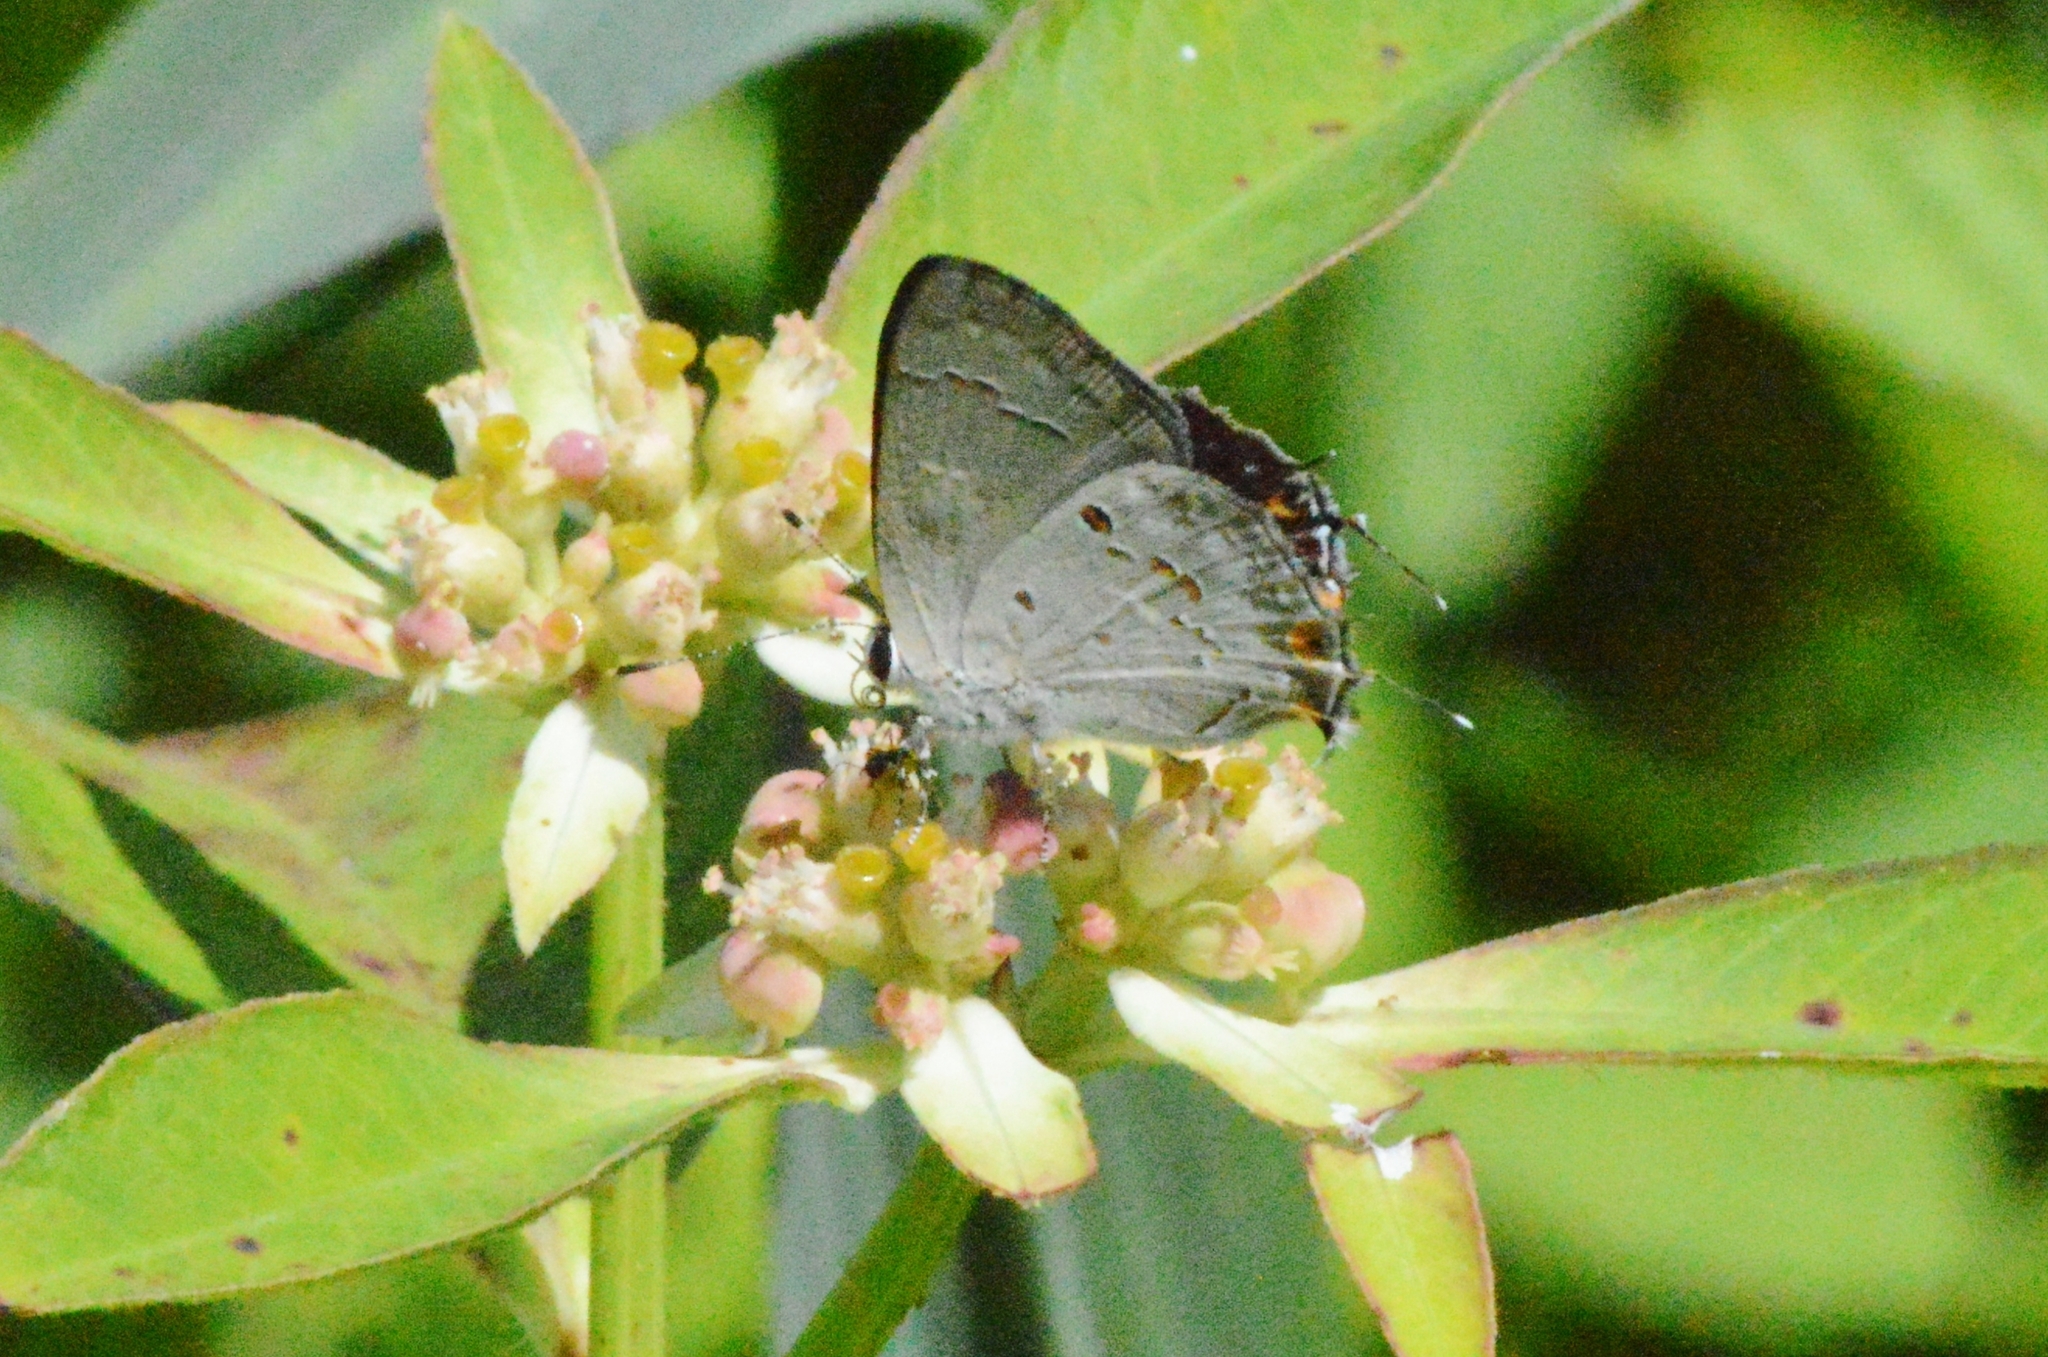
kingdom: Animalia
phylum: Arthropoda
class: Insecta
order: Lepidoptera
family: Lycaenidae
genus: Strymon
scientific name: Strymon
